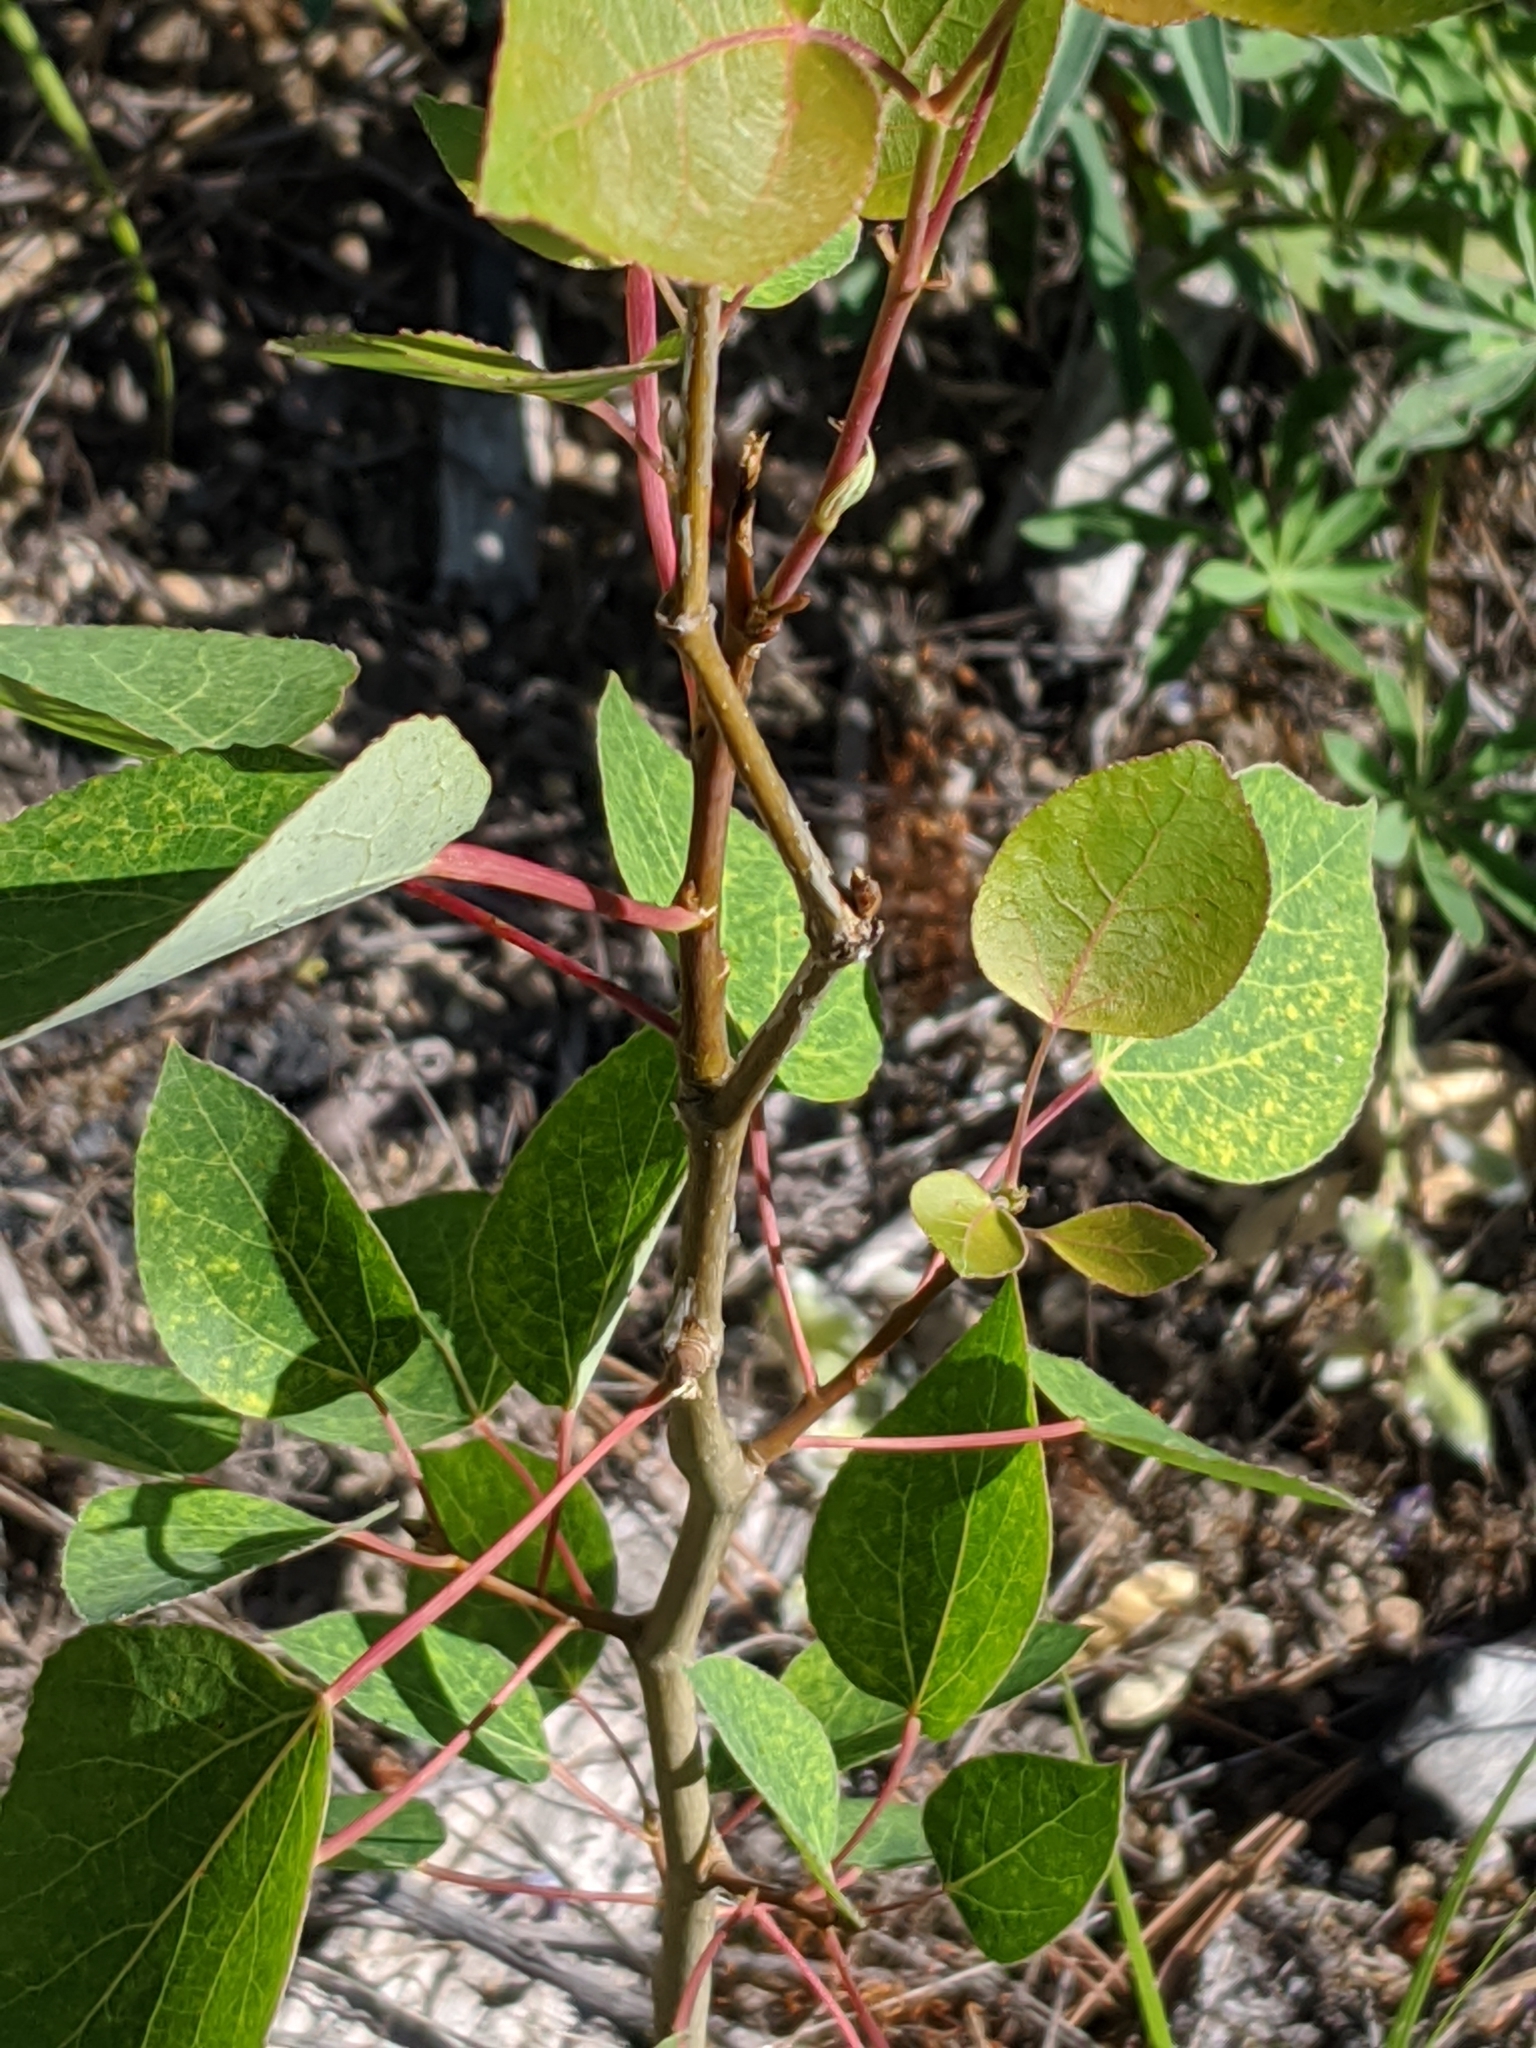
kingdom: Plantae
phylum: Tracheophyta
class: Magnoliopsida
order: Malpighiales
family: Salicaceae
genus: Populus
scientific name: Populus tremuloides
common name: Quaking aspen
